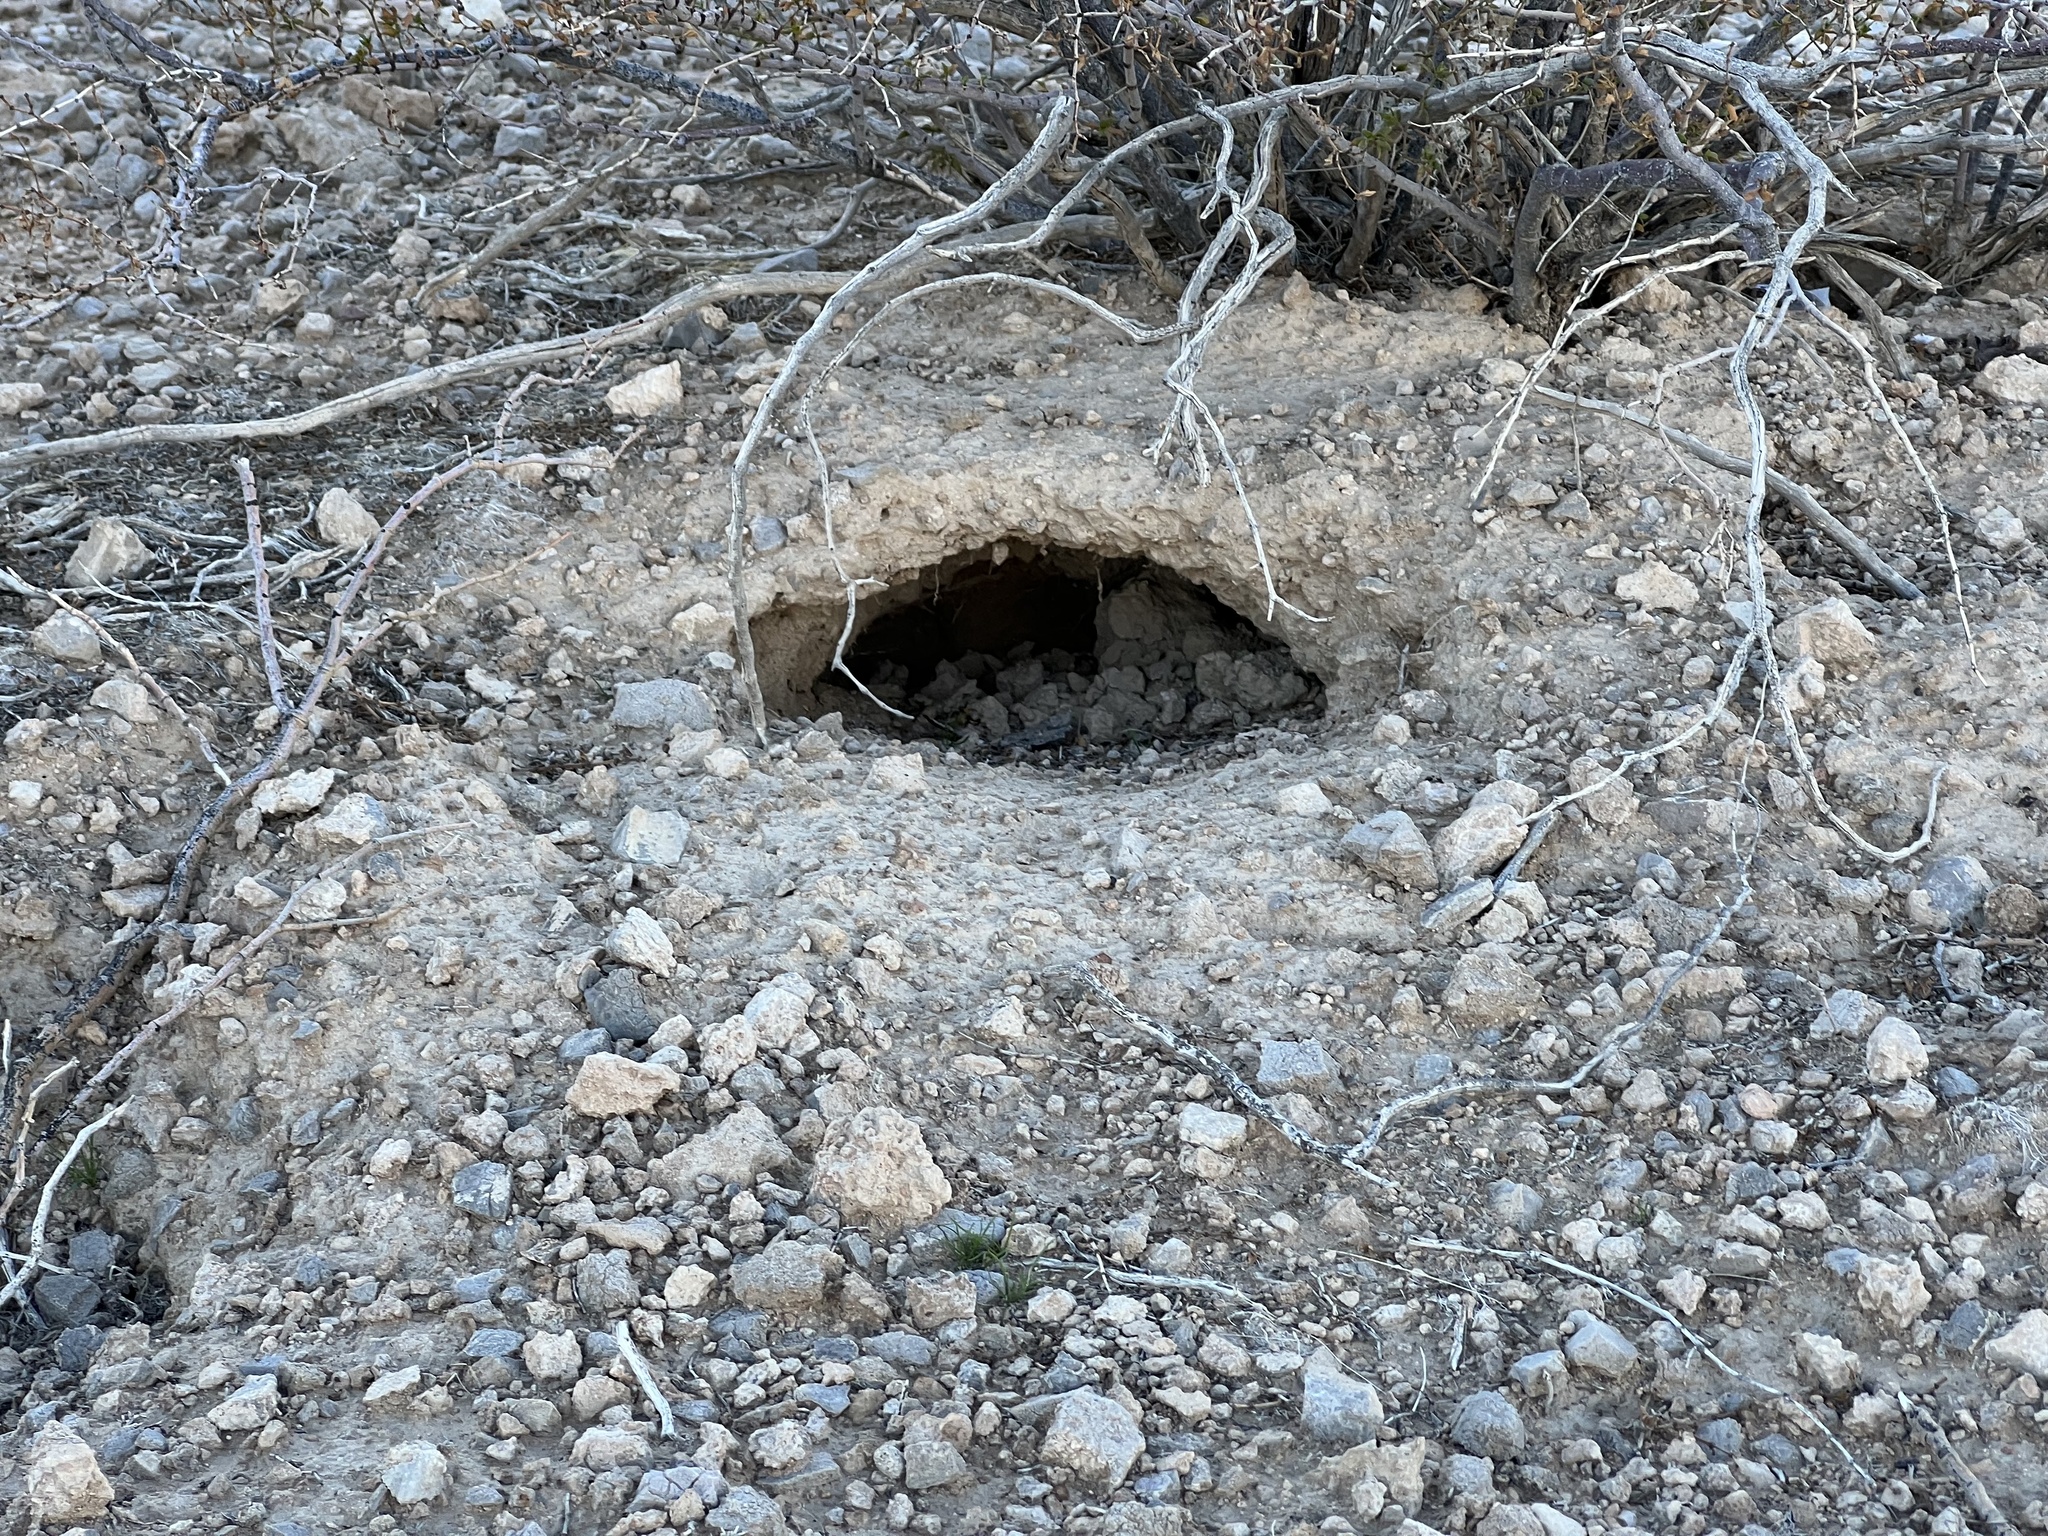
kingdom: Animalia
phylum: Chordata
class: Testudines
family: Testudinidae
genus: Gopherus
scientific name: Gopherus agassizii
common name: Mojave desert tortoise
